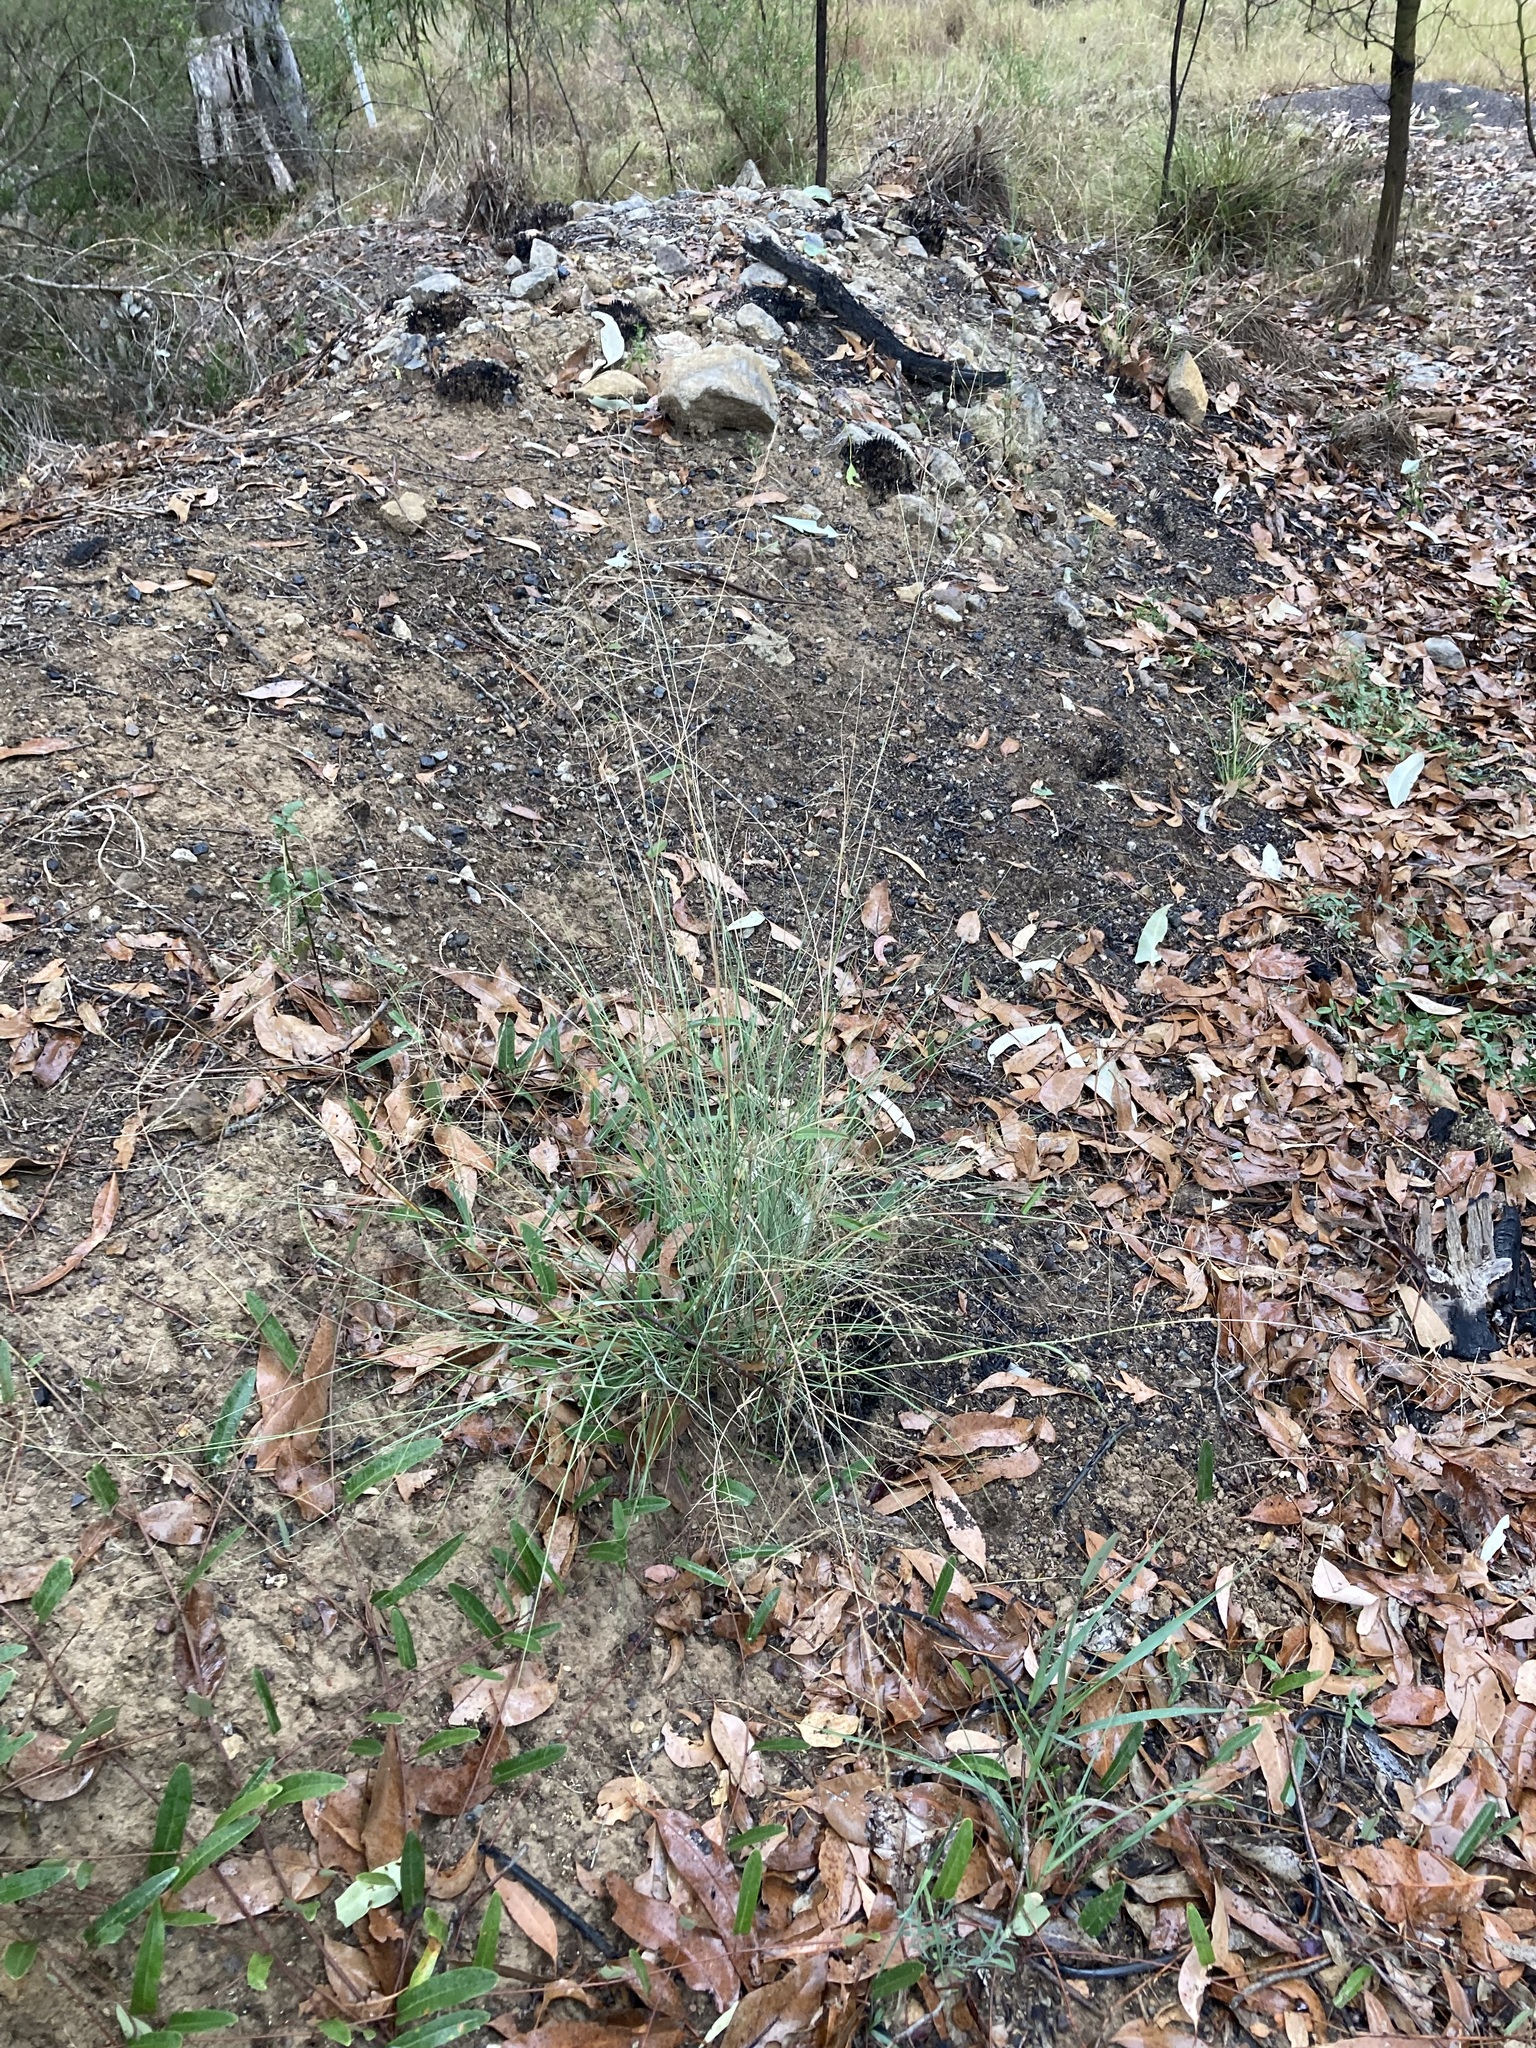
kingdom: Plantae
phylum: Tracheophyta
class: Liliopsida
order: Poales
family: Poaceae
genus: Eragrostis
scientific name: Eragrostis curvula
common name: African love-grass
